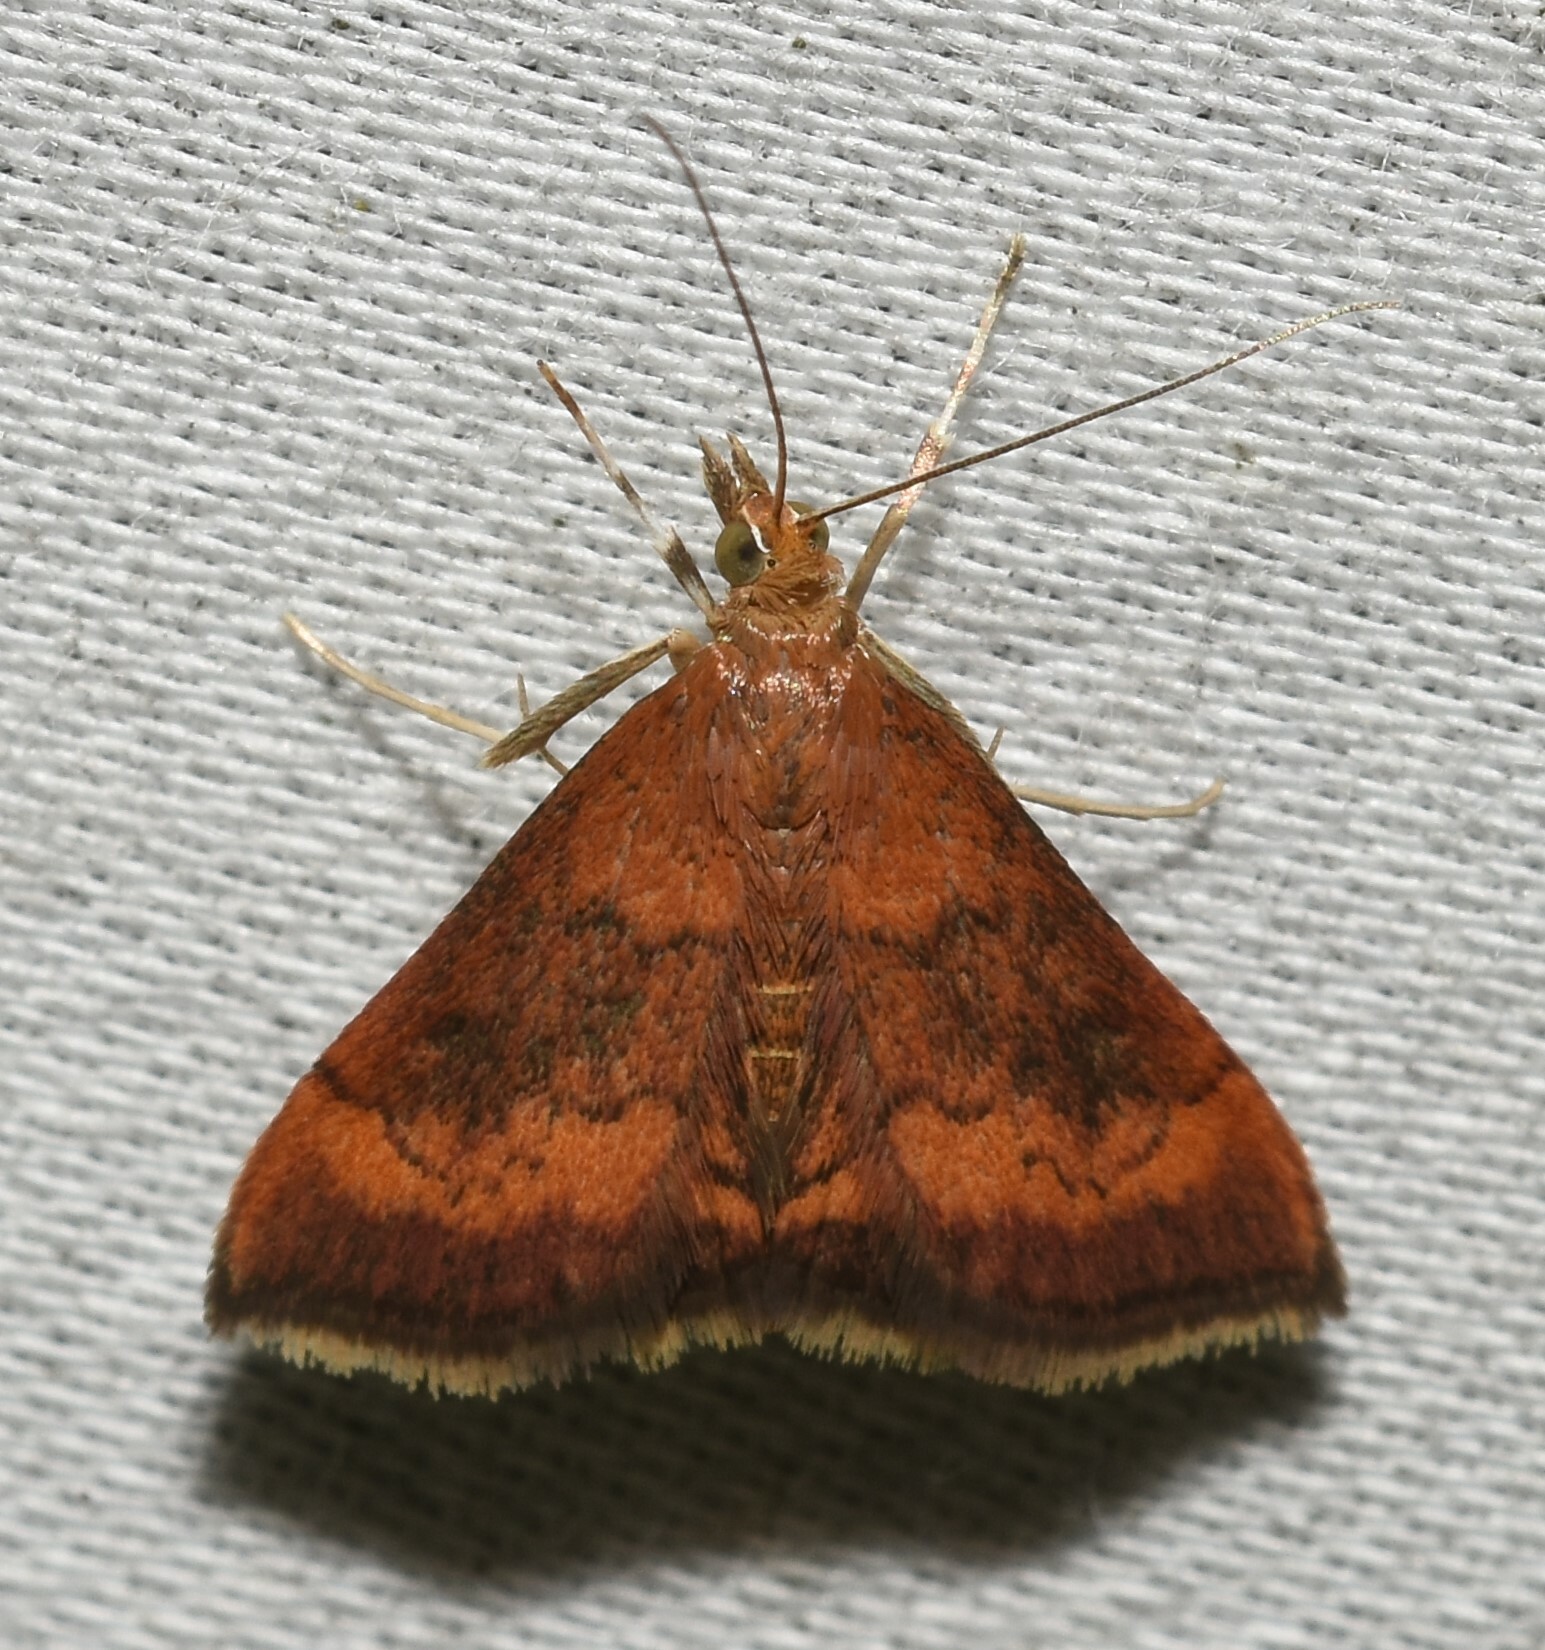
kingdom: Animalia
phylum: Arthropoda
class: Insecta
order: Lepidoptera
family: Crambidae
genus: Pyrausta
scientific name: Pyrausta rubricalis
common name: Variable reddish pyrausta
